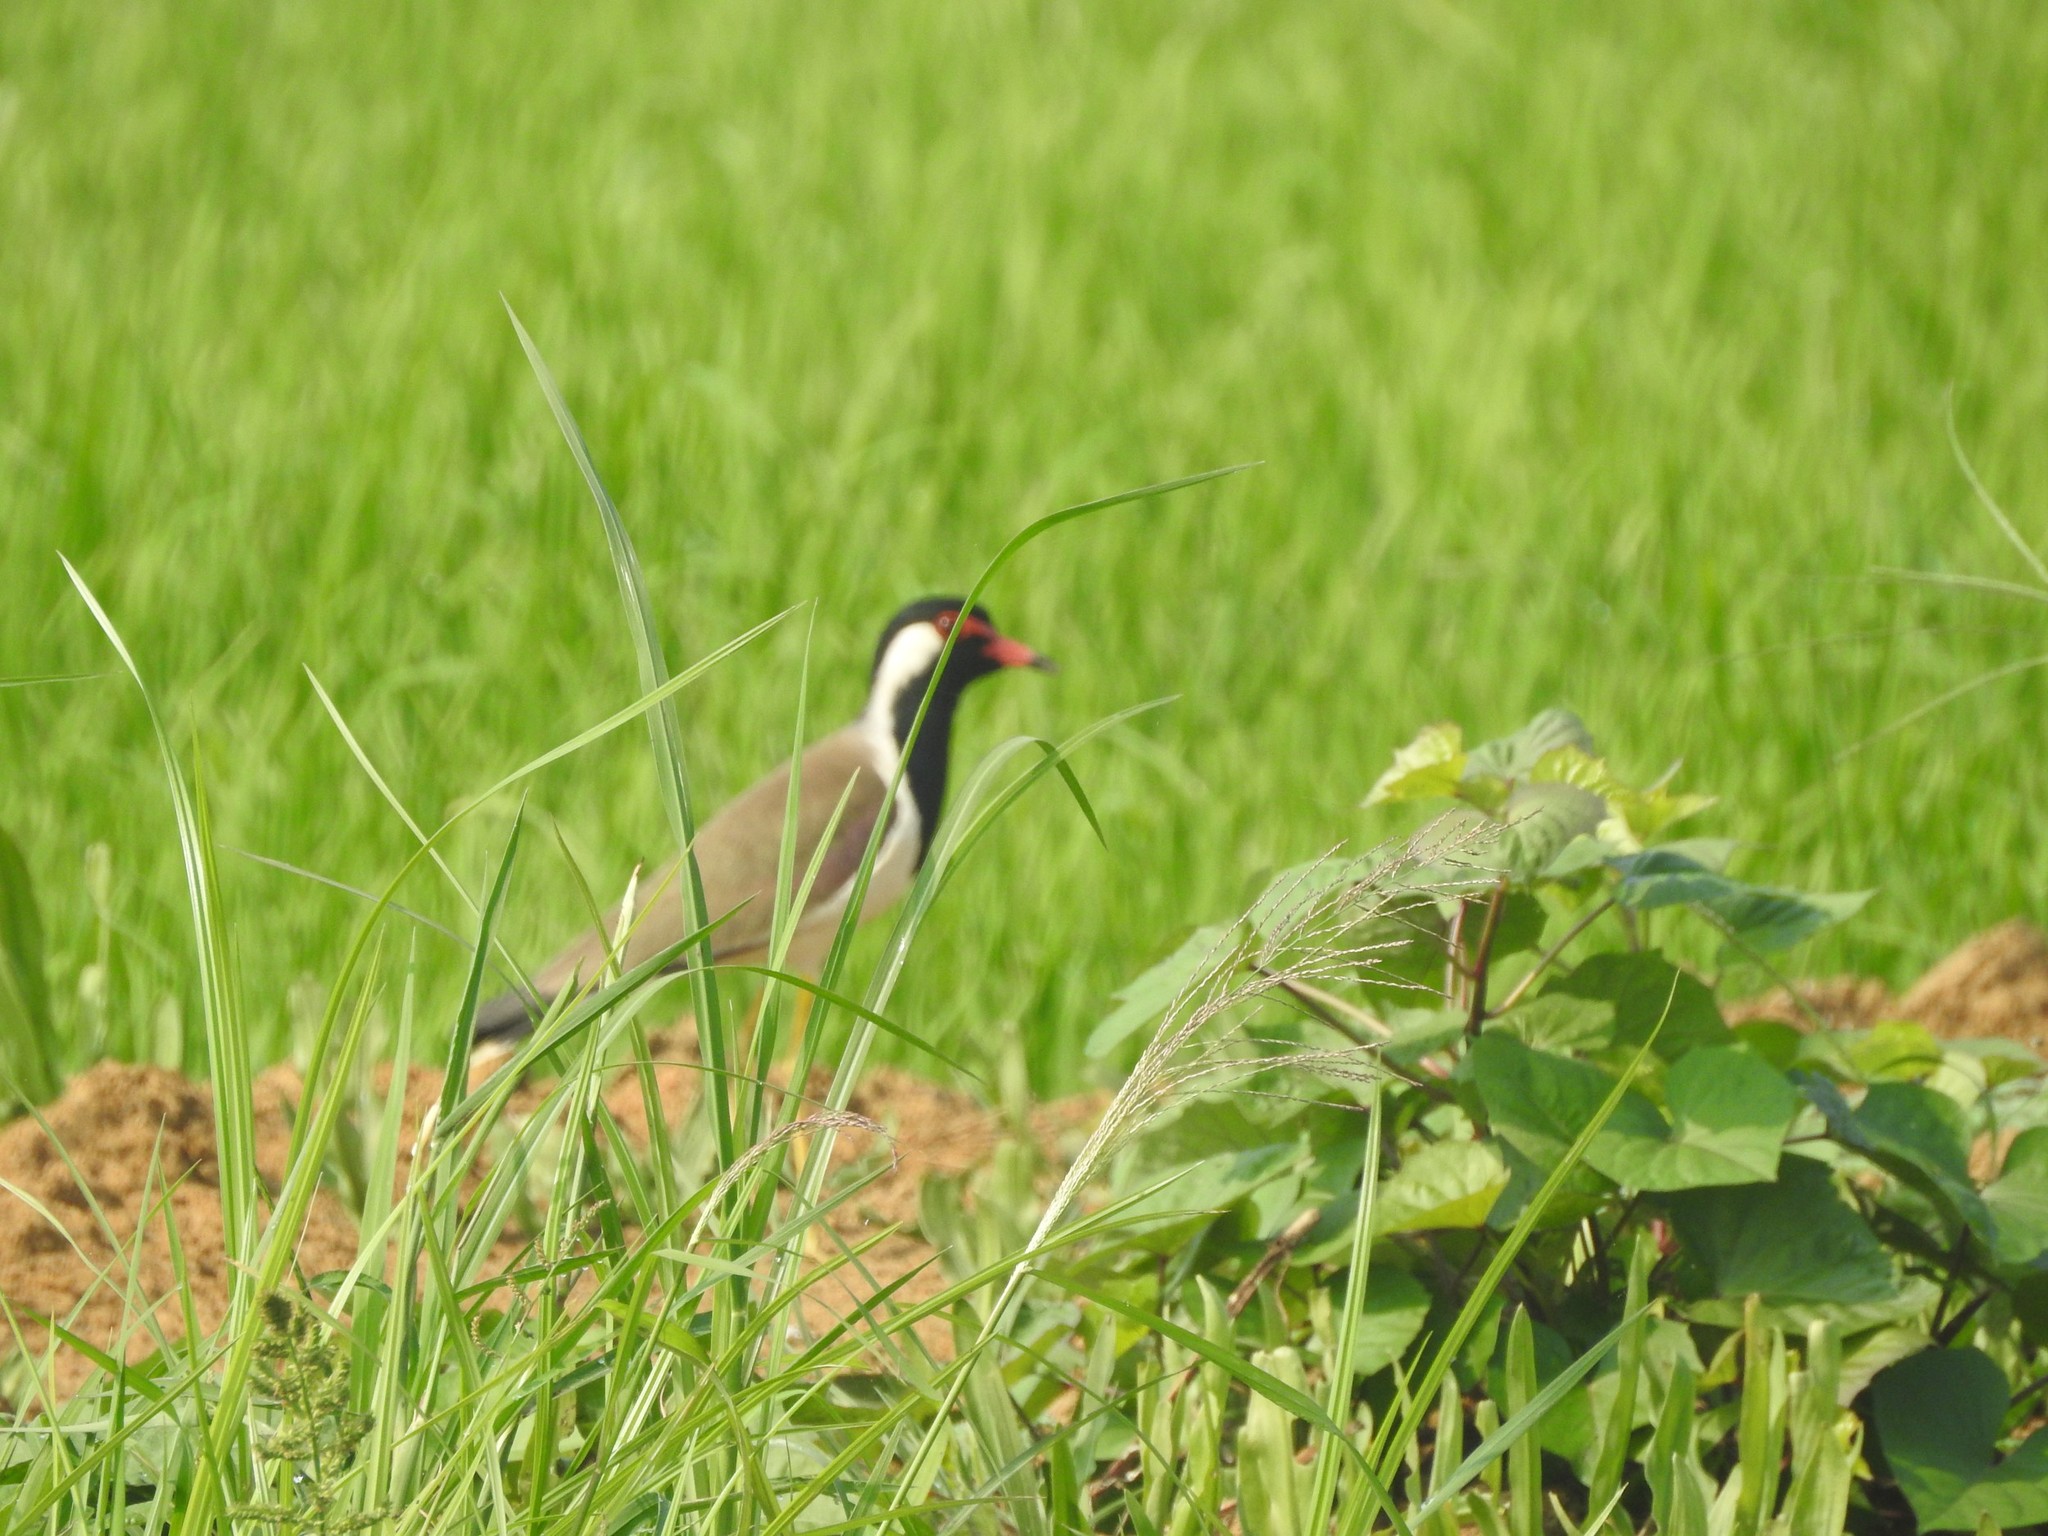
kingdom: Animalia
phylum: Chordata
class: Aves
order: Charadriiformes
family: Charadriidae
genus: Vanellus
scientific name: Vanellus indicus
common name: Red-wattled lapwing
